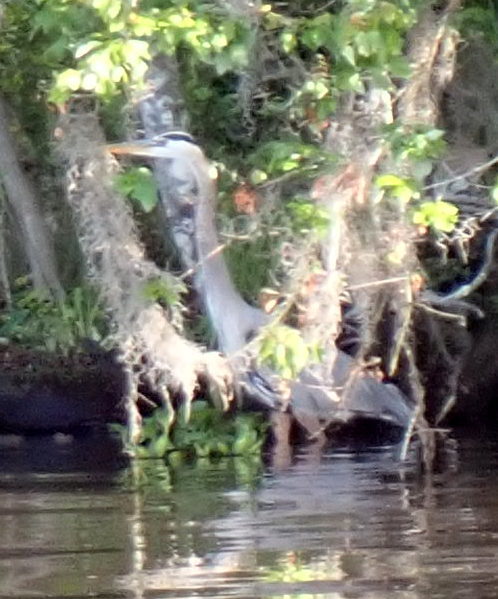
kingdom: Animalia
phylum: Chordata
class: Aves
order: Pelecaniformes
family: Ardeidae
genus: Ardea
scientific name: Ardea herodias
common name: Great blue heron
